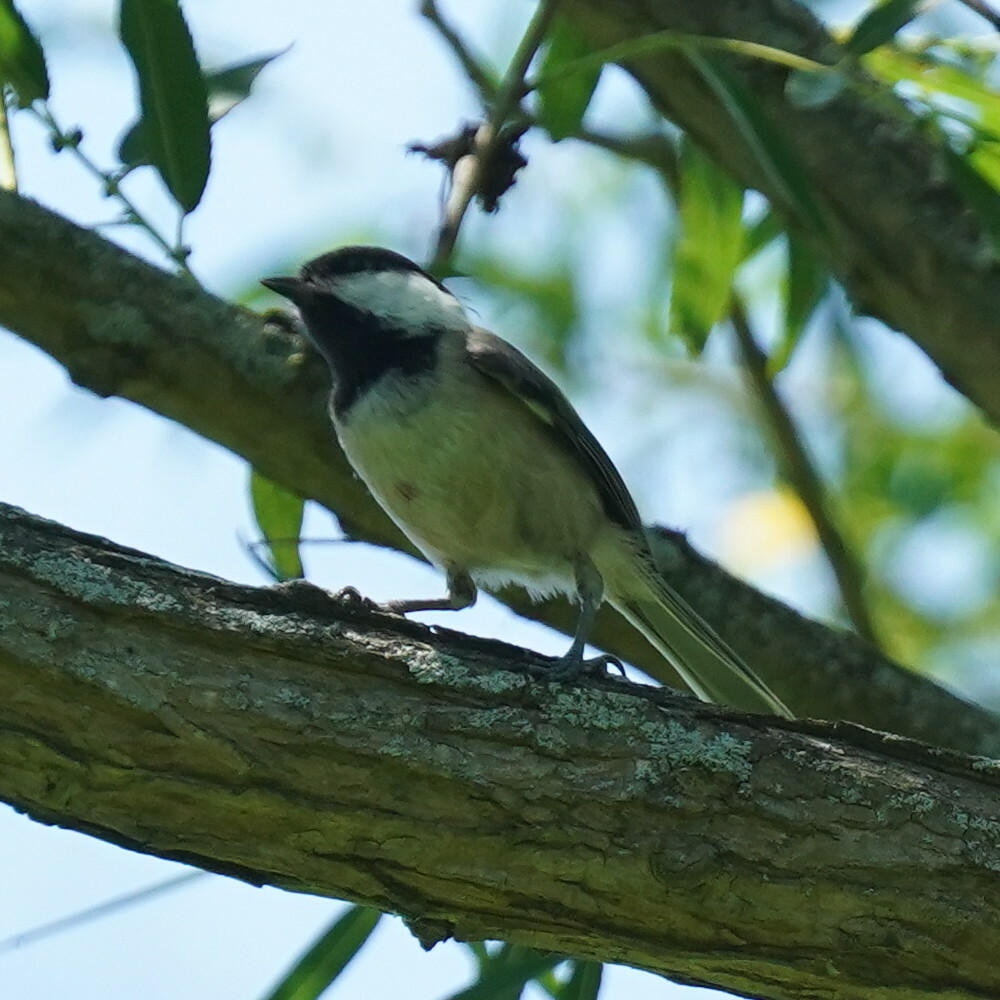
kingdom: Animalia
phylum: Chordata
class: Aves
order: Passeriformes
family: Paridae
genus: Poecile
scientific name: Poecile atricapillus
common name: Black-capped chickadee
